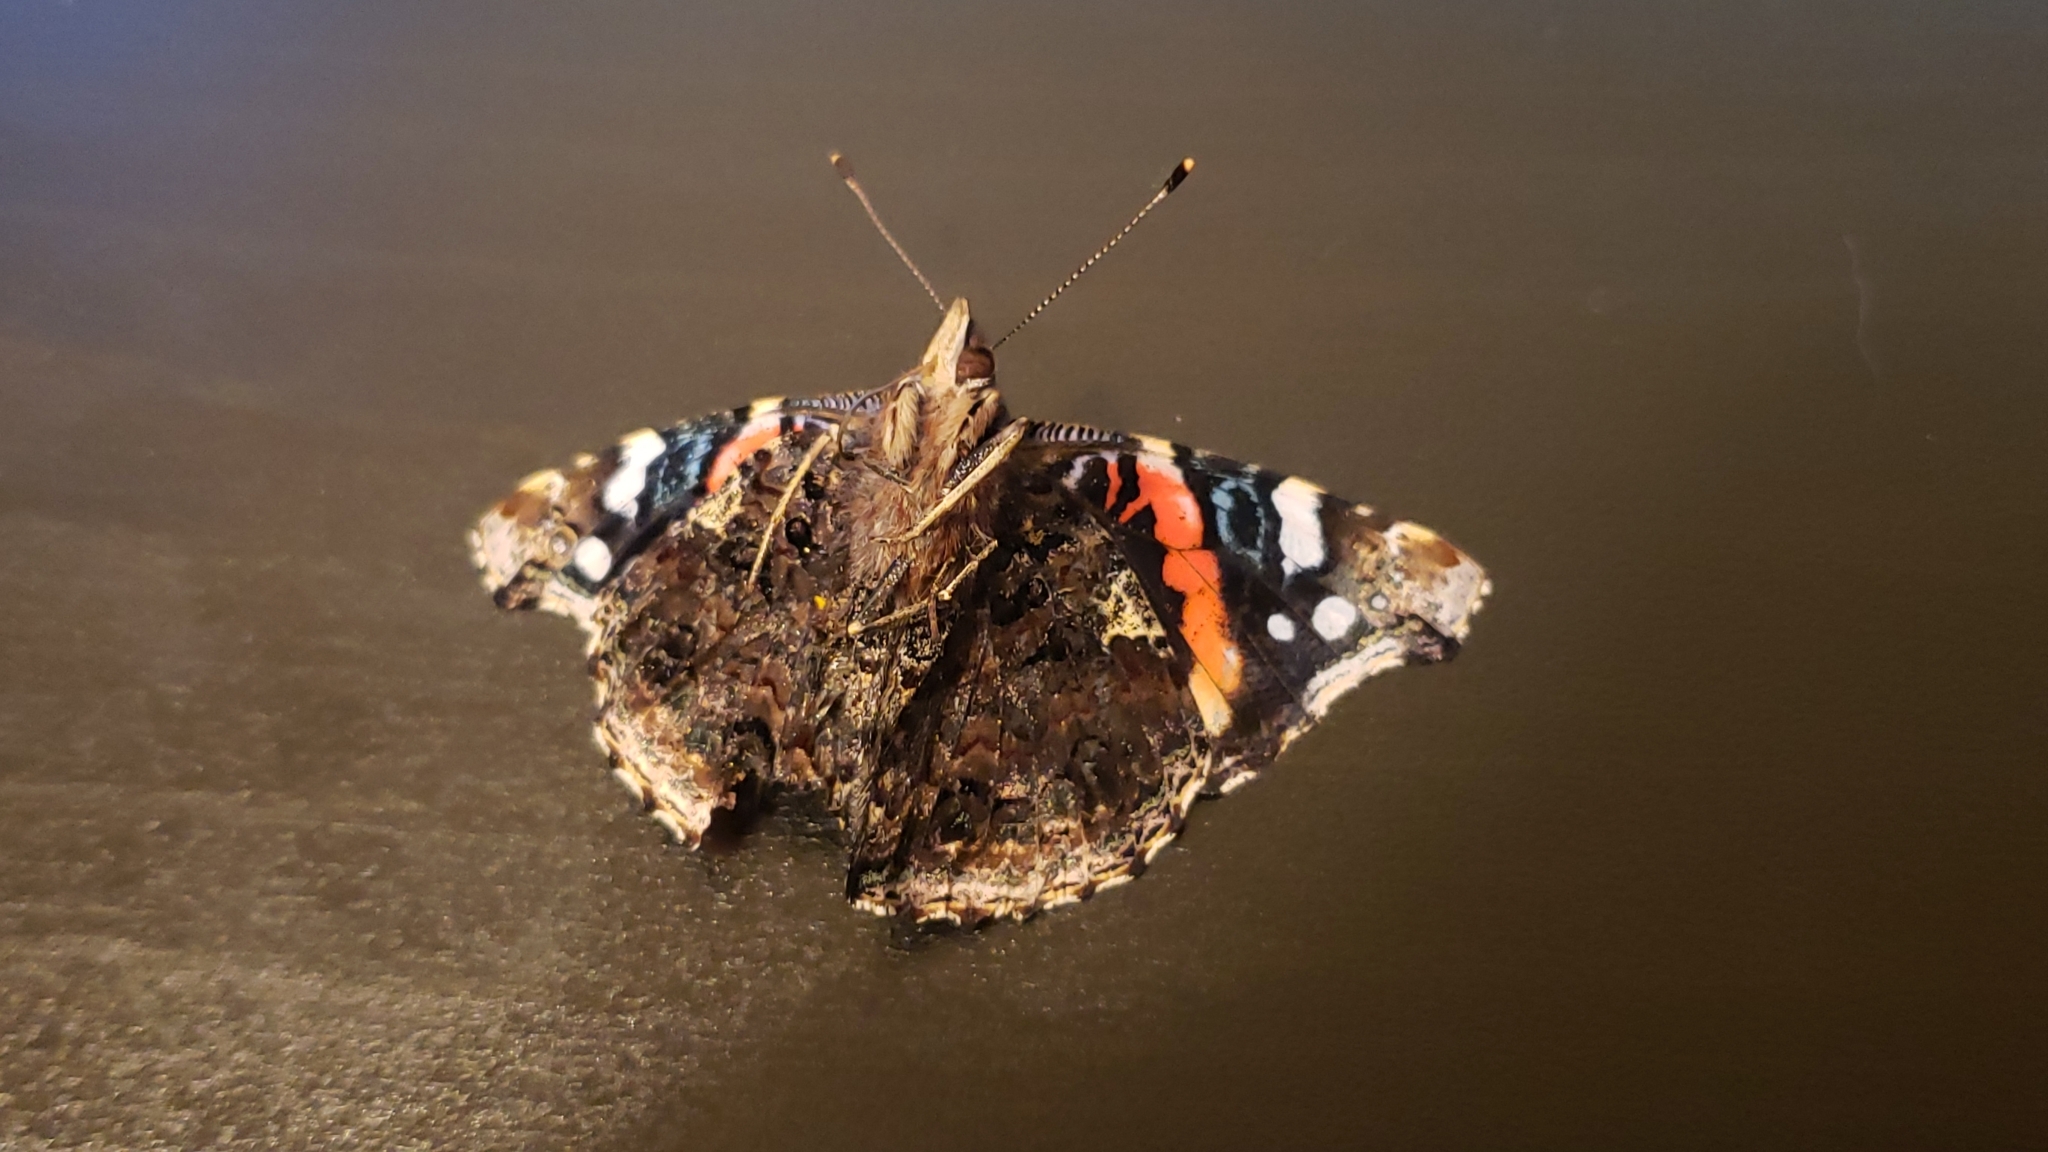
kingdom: Animalia
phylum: Arthropoda
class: Insecta
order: Lepidoptera
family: Nymphalidae
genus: Vanessa
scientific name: Vanessa atalanta
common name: Red admiral
